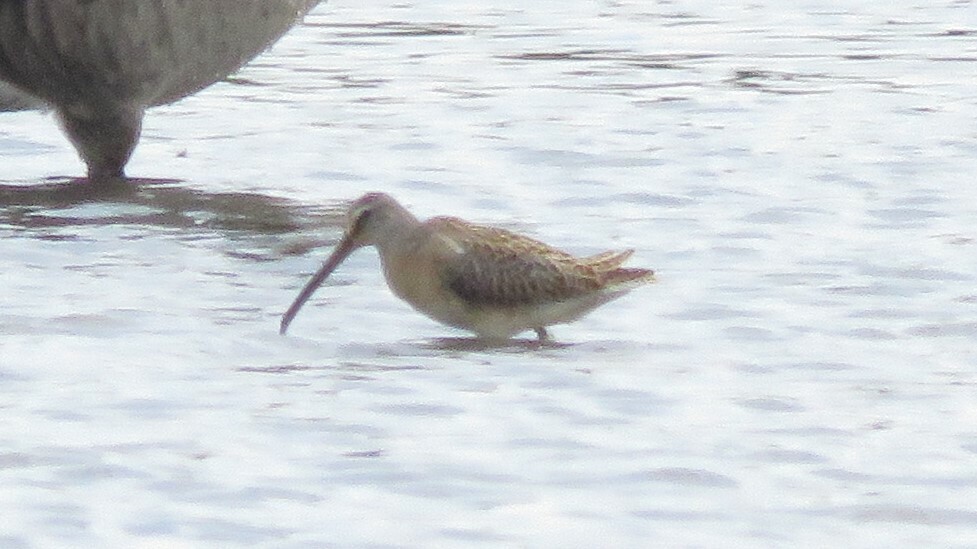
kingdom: Animalia
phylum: Chordata
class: Aves
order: Charadriiformes
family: Scolopacidae
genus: Limnodromus
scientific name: Limnodromus griseus
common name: Short-billed dowitcher
